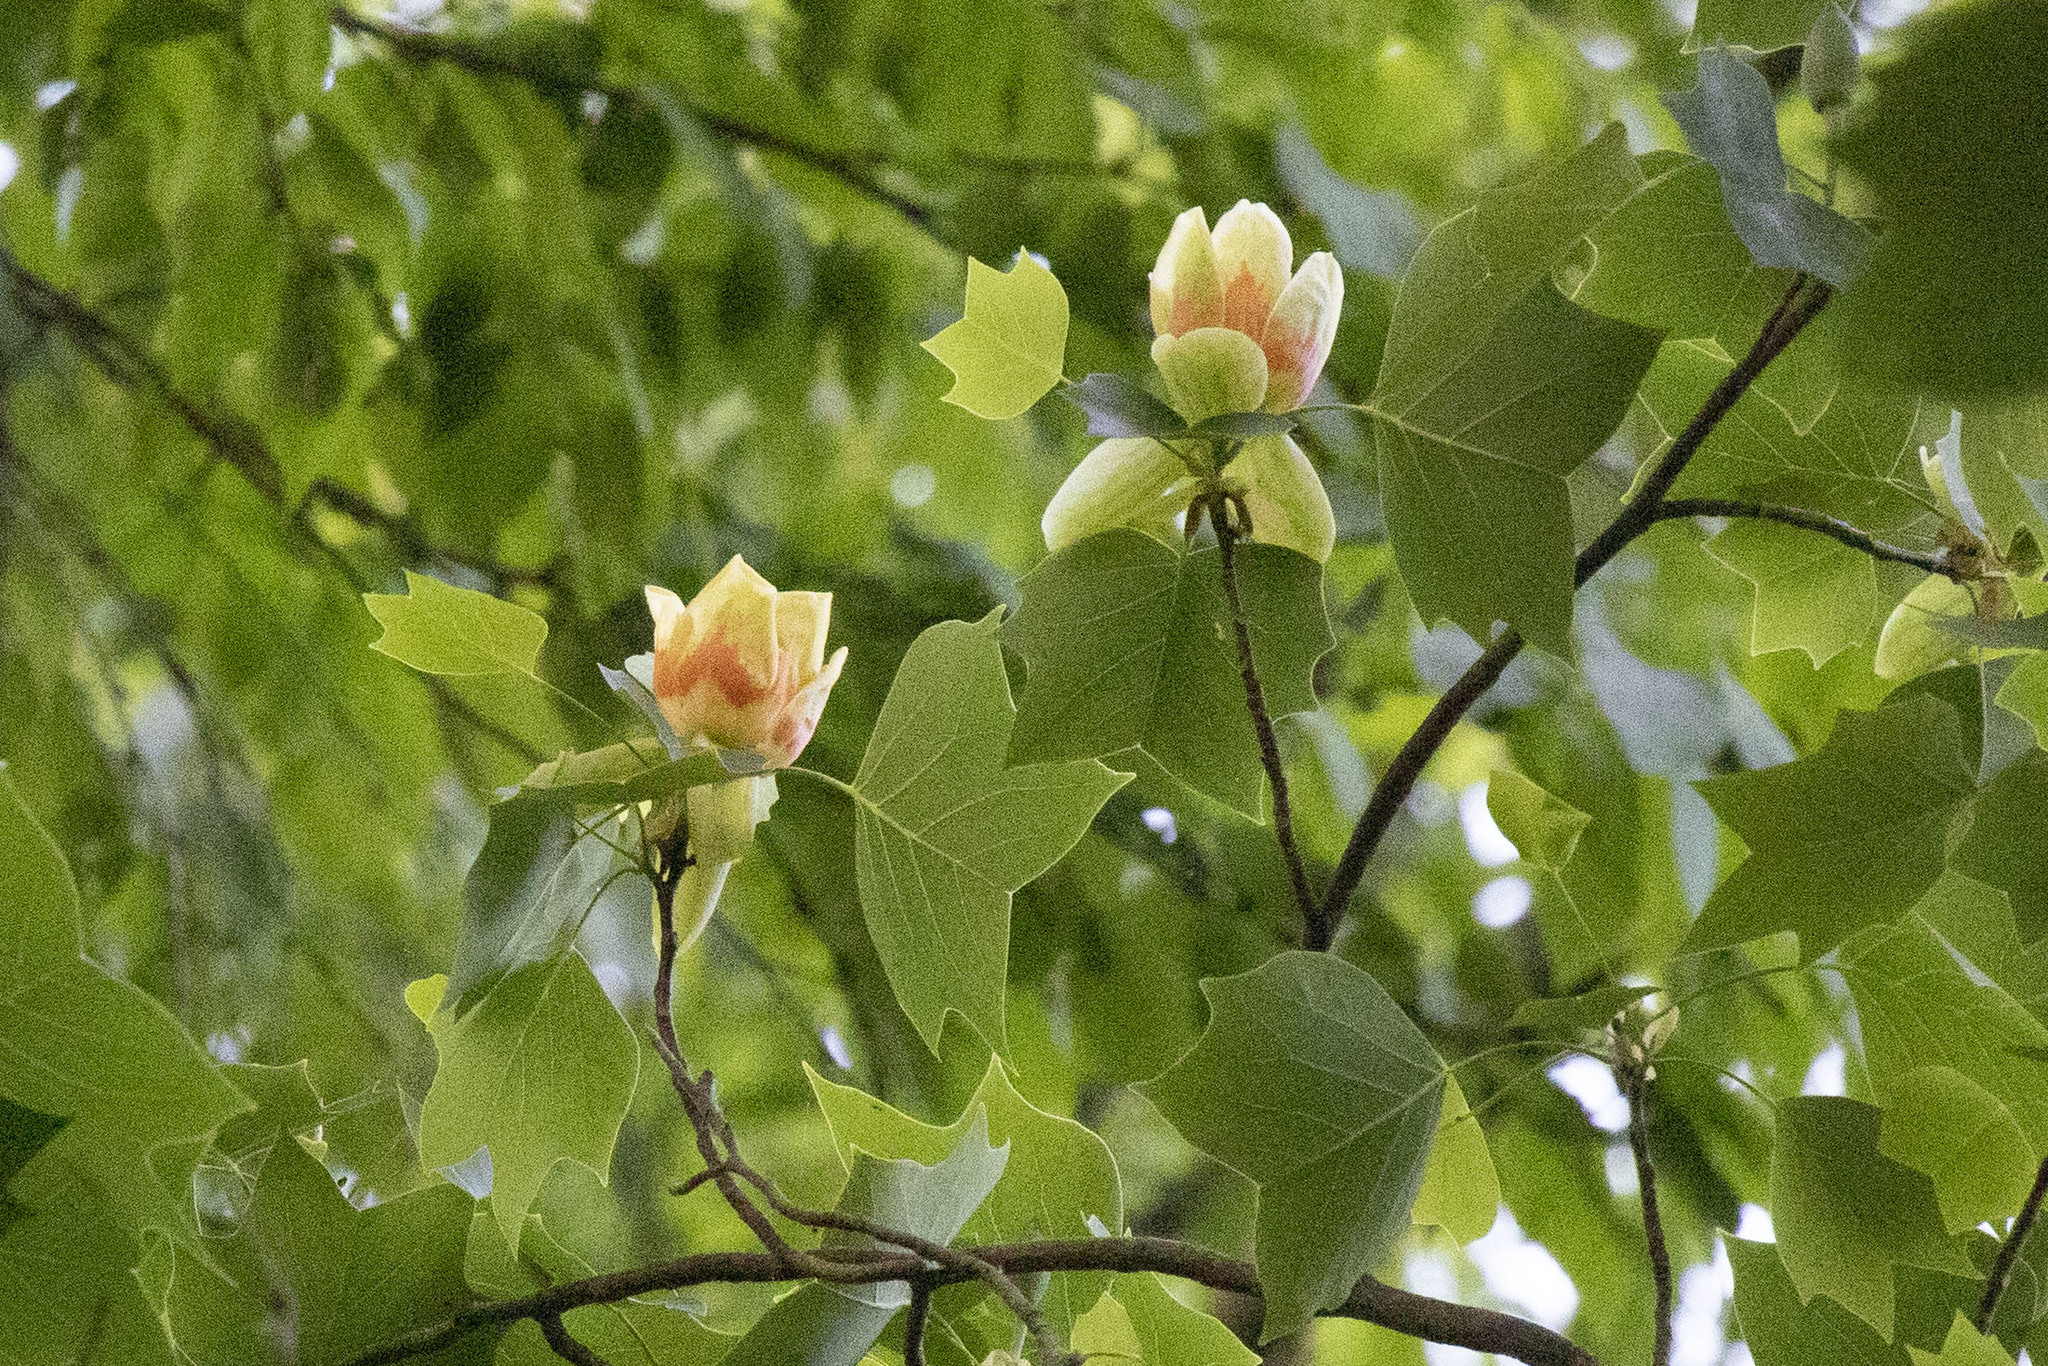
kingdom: Plantae
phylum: Tracheophyta
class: Magnoliopsida
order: Magnoliales
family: Magnoliaceae
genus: Liriodendron
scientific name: Liriodendron tulipifera
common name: Tulip tree
